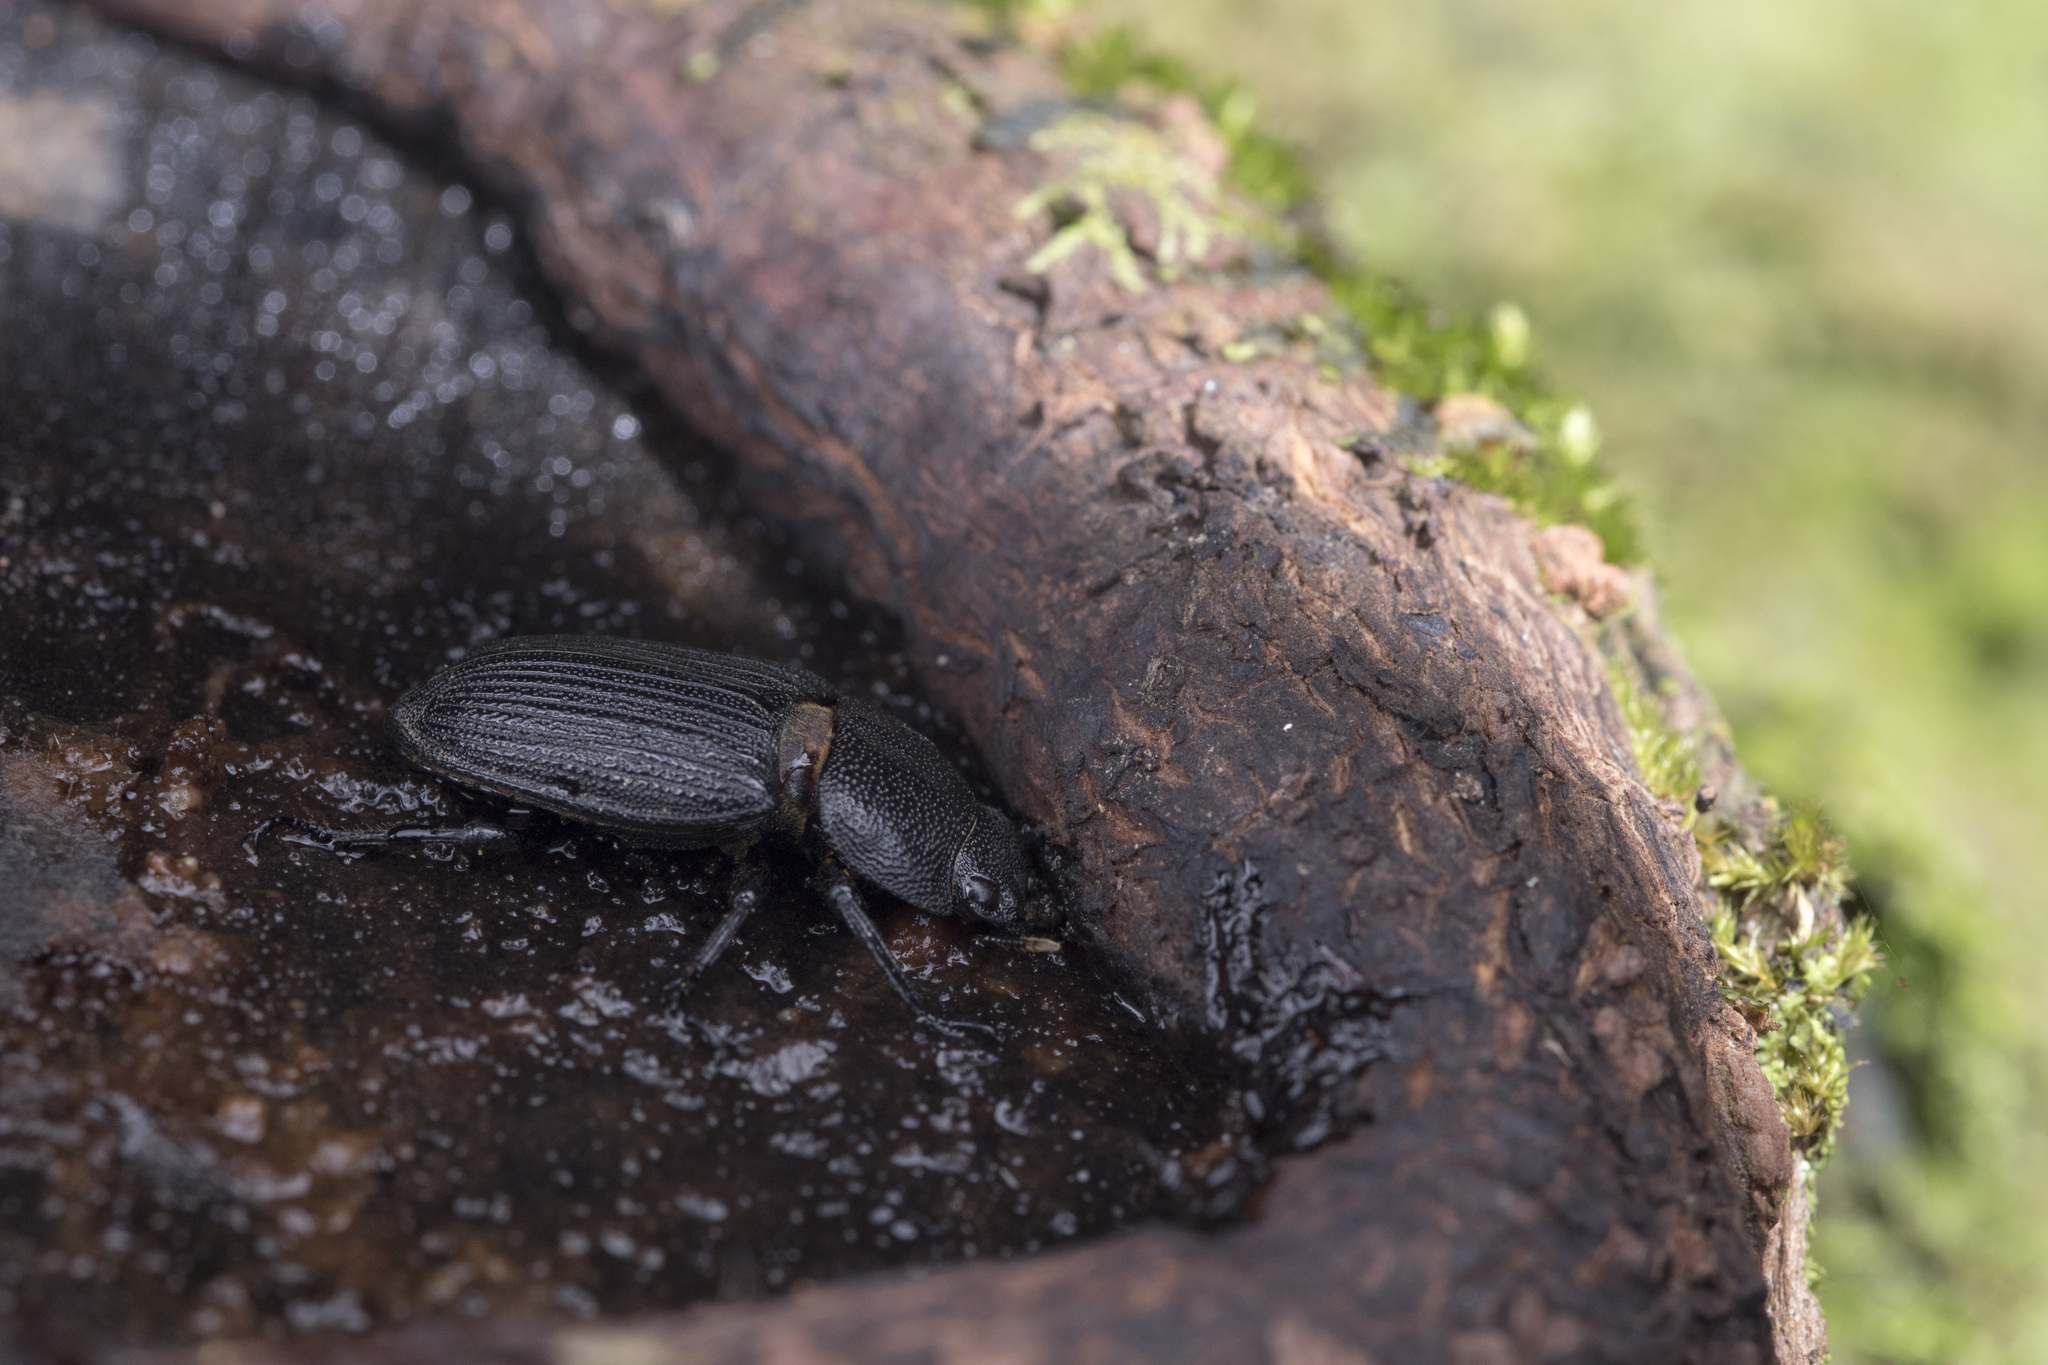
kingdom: Animalia
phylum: Arthropoda
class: Insecta
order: Coleoptera
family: Lucanidae
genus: Aegus
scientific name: Aegus laevicollis
